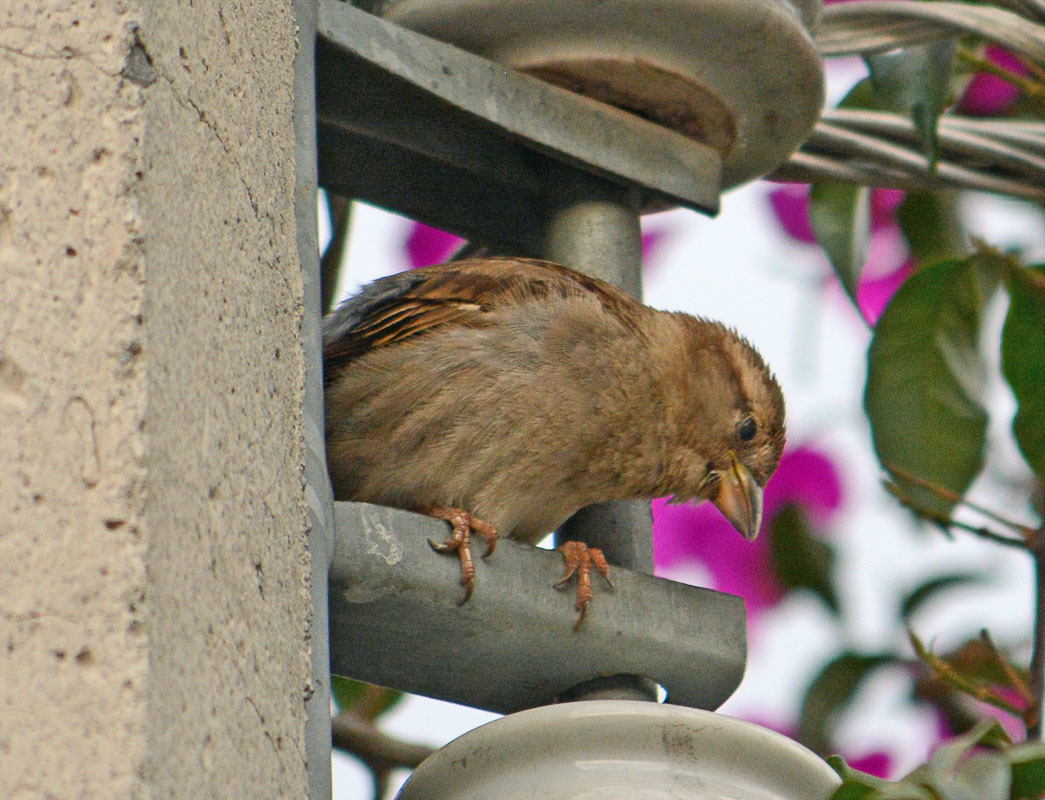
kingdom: Animalia
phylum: Chordata
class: Aves
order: Passeriformes
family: Passeridae
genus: Passer
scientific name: Passer domesticus
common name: House sparrow
